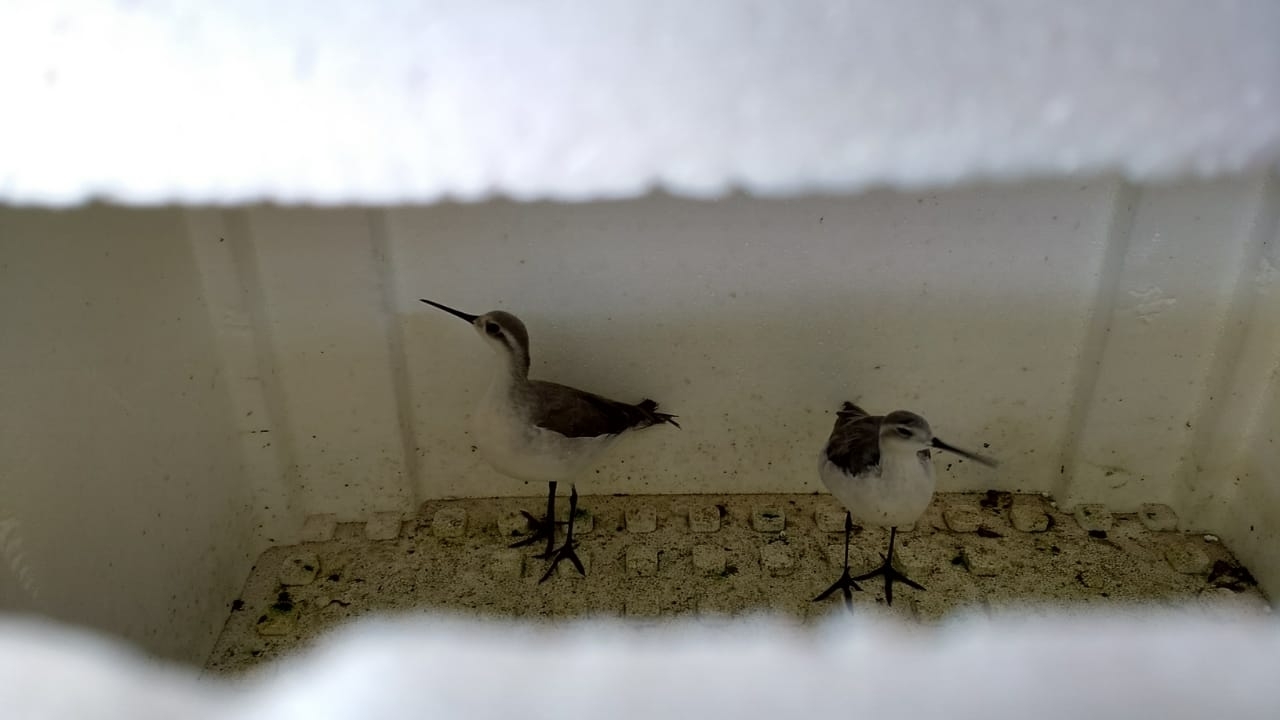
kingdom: Animalia
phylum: Chordata
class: Aves
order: Charadriiformes
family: Scolopacidae
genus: Phalaropus
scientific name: Phalaropus tricolor
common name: Wilson's phalarope
